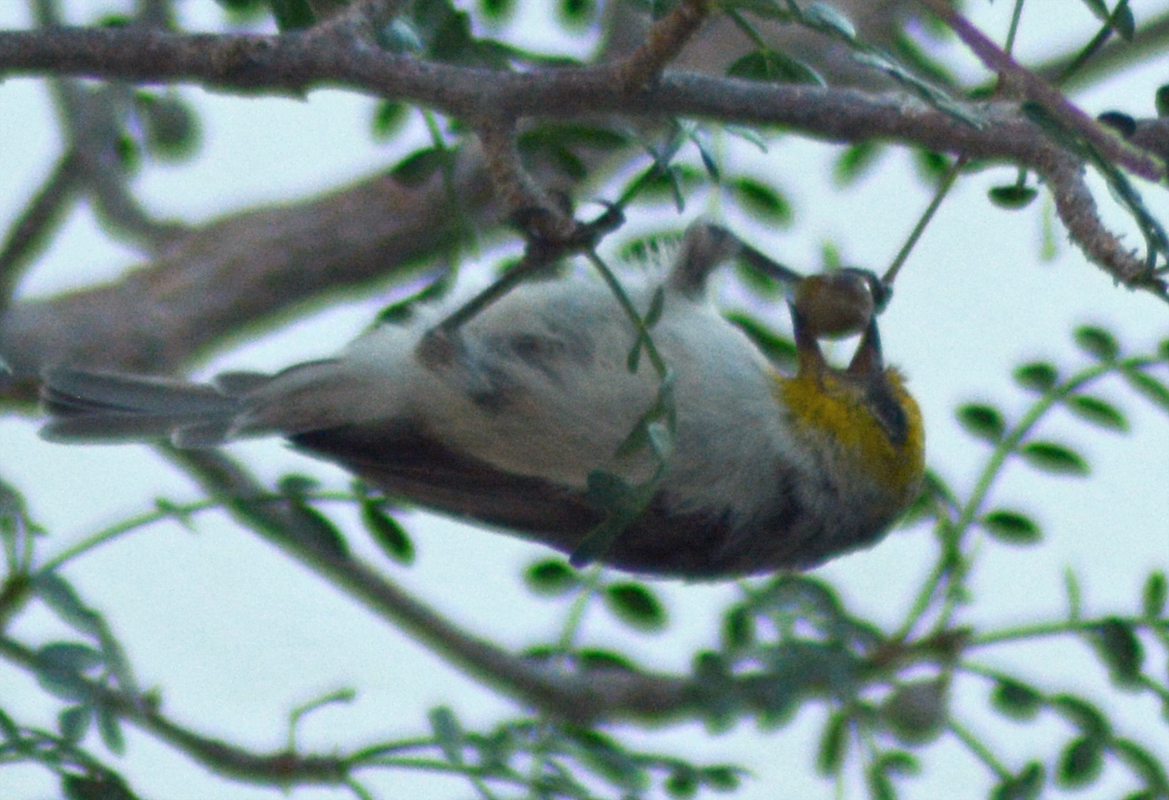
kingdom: Animalia
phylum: Chordata
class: Aves
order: Passeriformes
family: Remizidae
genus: Auriparus
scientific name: Auriparus flaviceps
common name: Verdin
